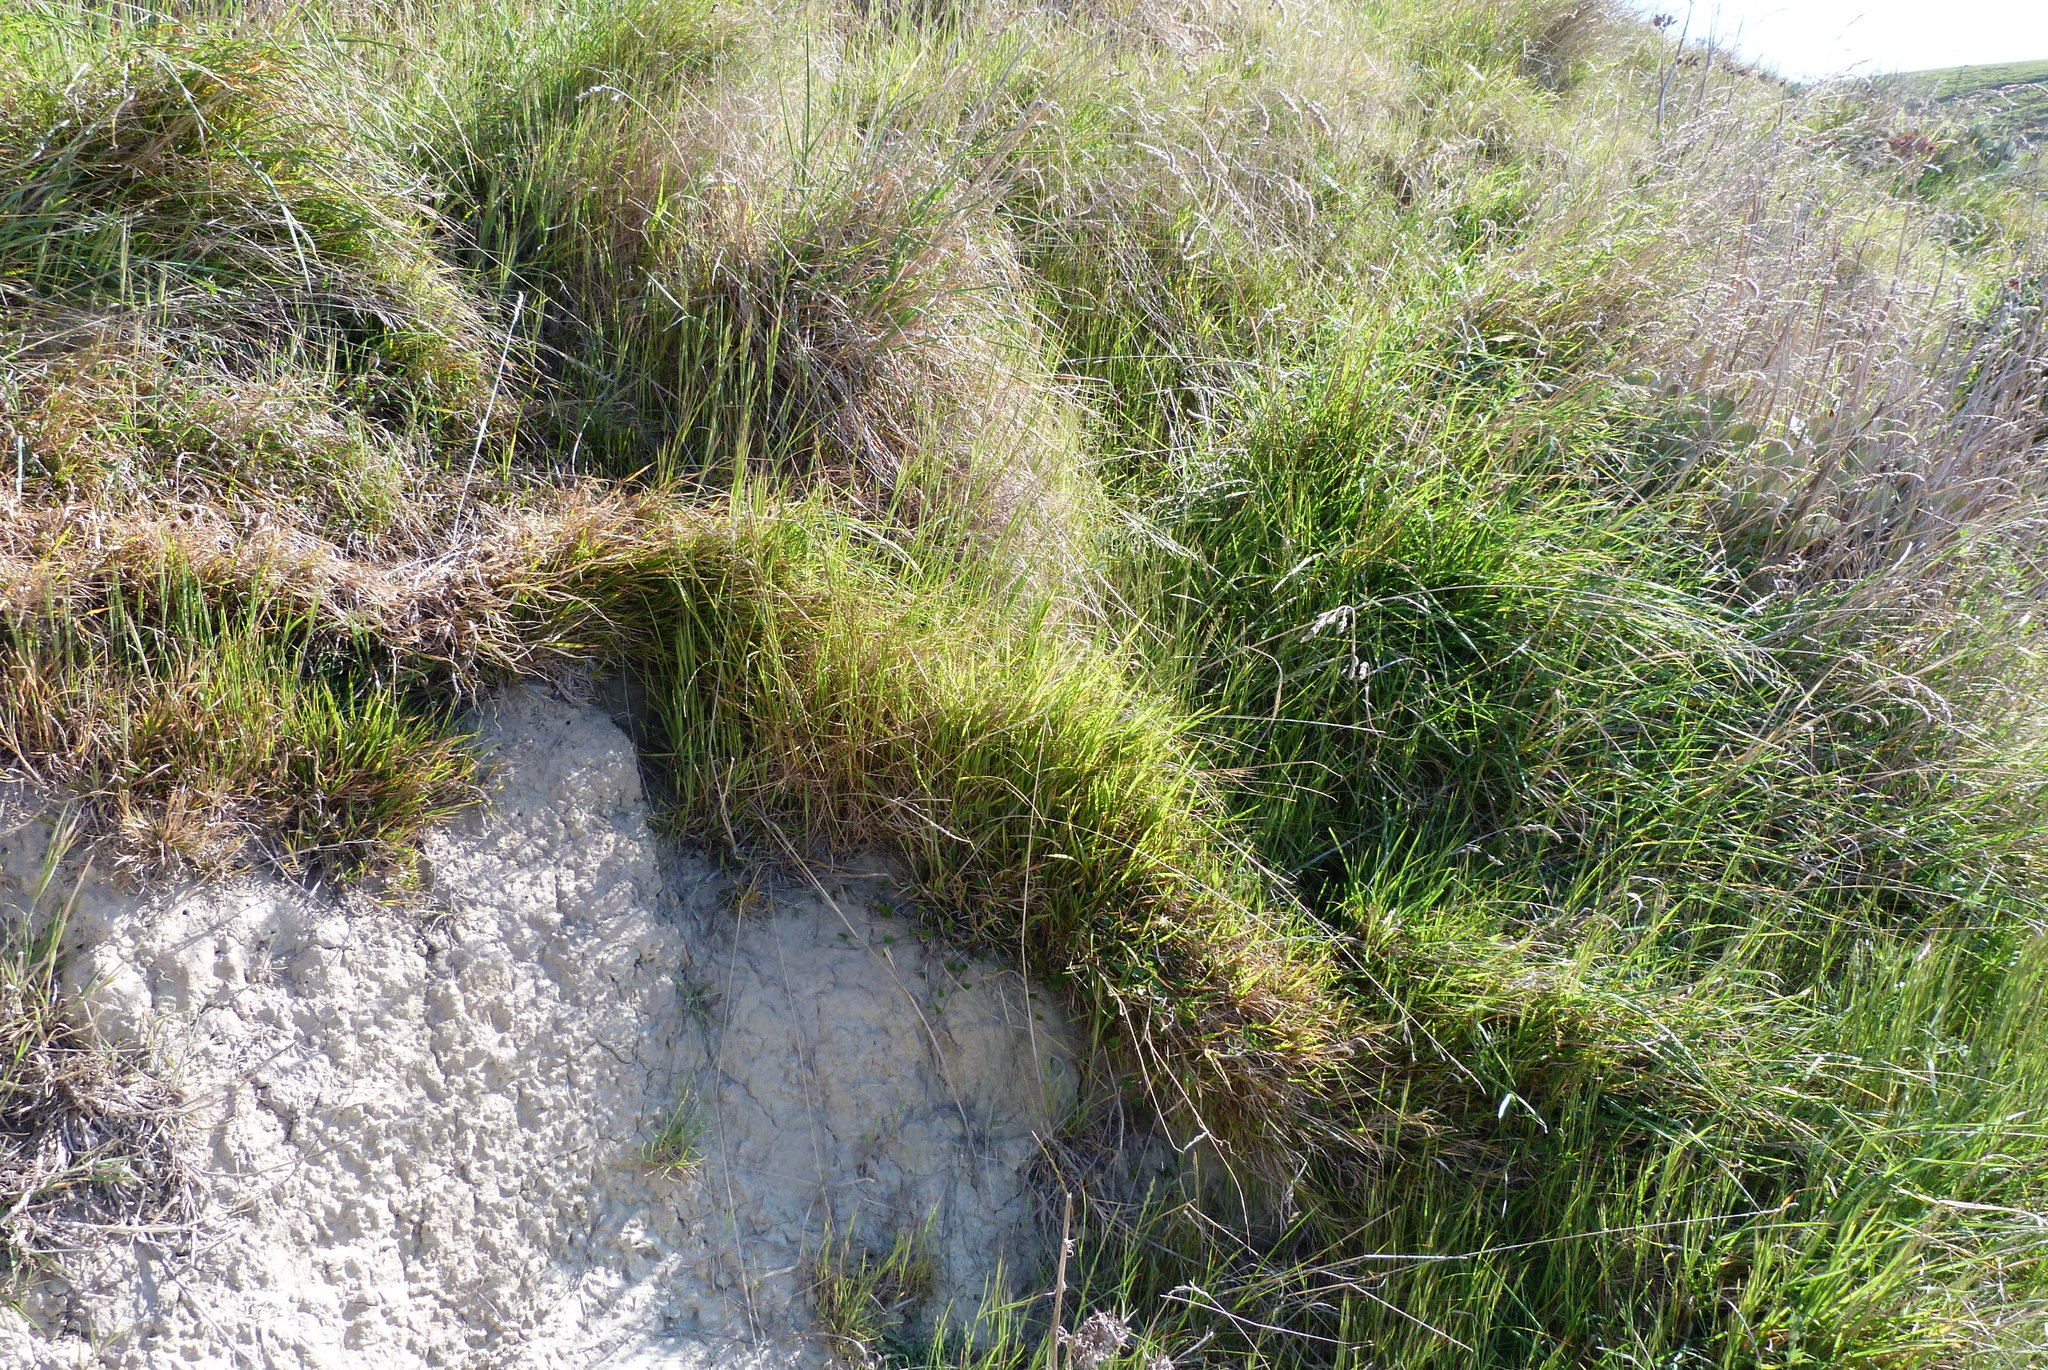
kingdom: Plantae
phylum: Tracheophyta
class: Liliopsida
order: Poales
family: Poaceae
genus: Microlaena
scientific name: Microlaena stipoides
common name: Meadow ricegrass
